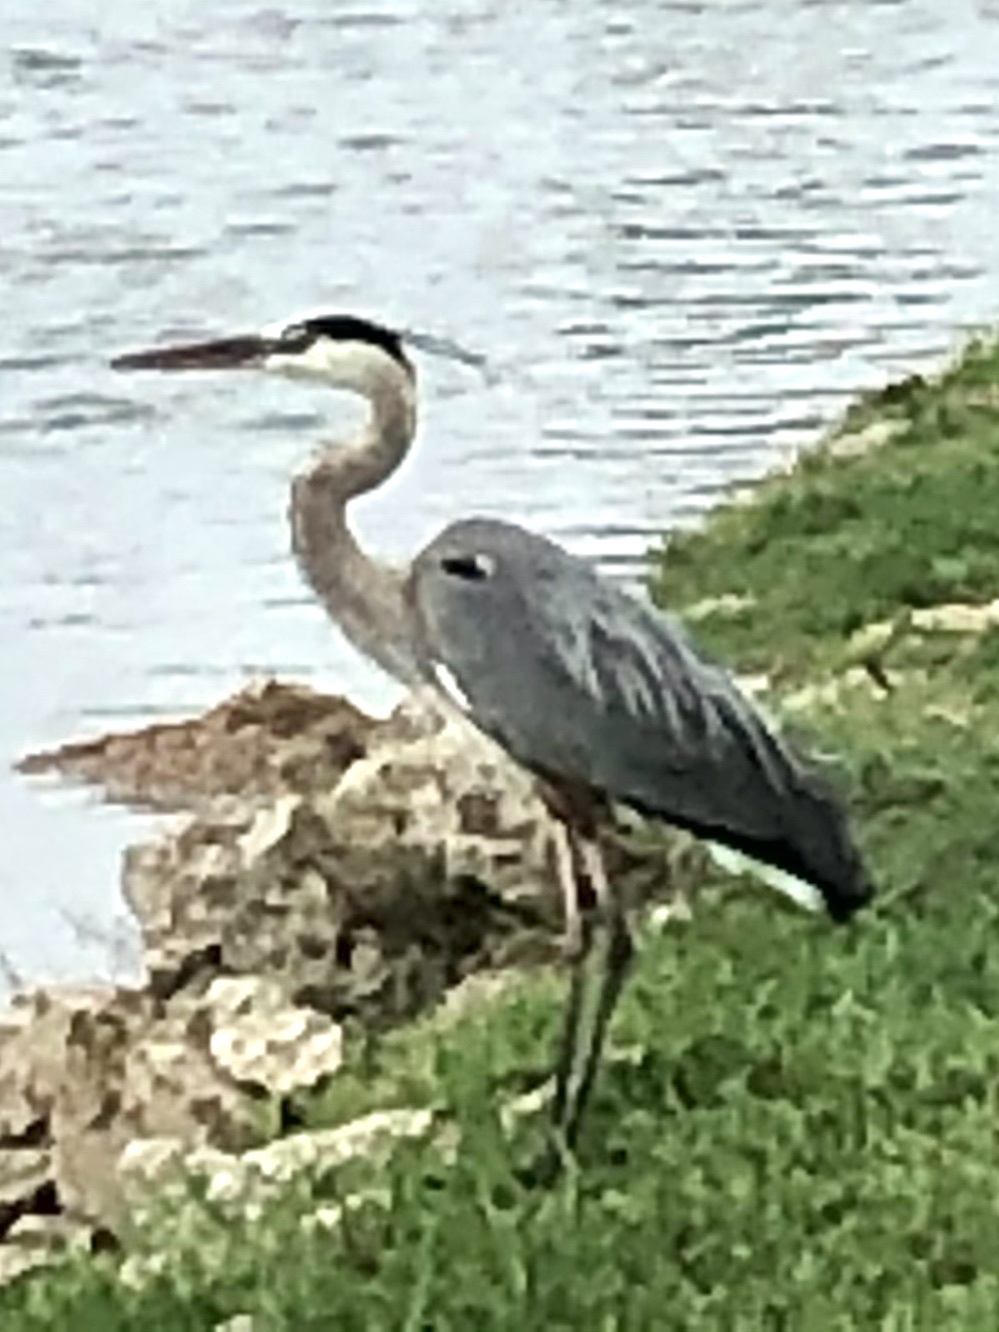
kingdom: Animalia
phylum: Chordata
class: Aves
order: Pelecaniformes
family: Ardeidae
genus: Ardea
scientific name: Ardea herodias
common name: Great blue heron
